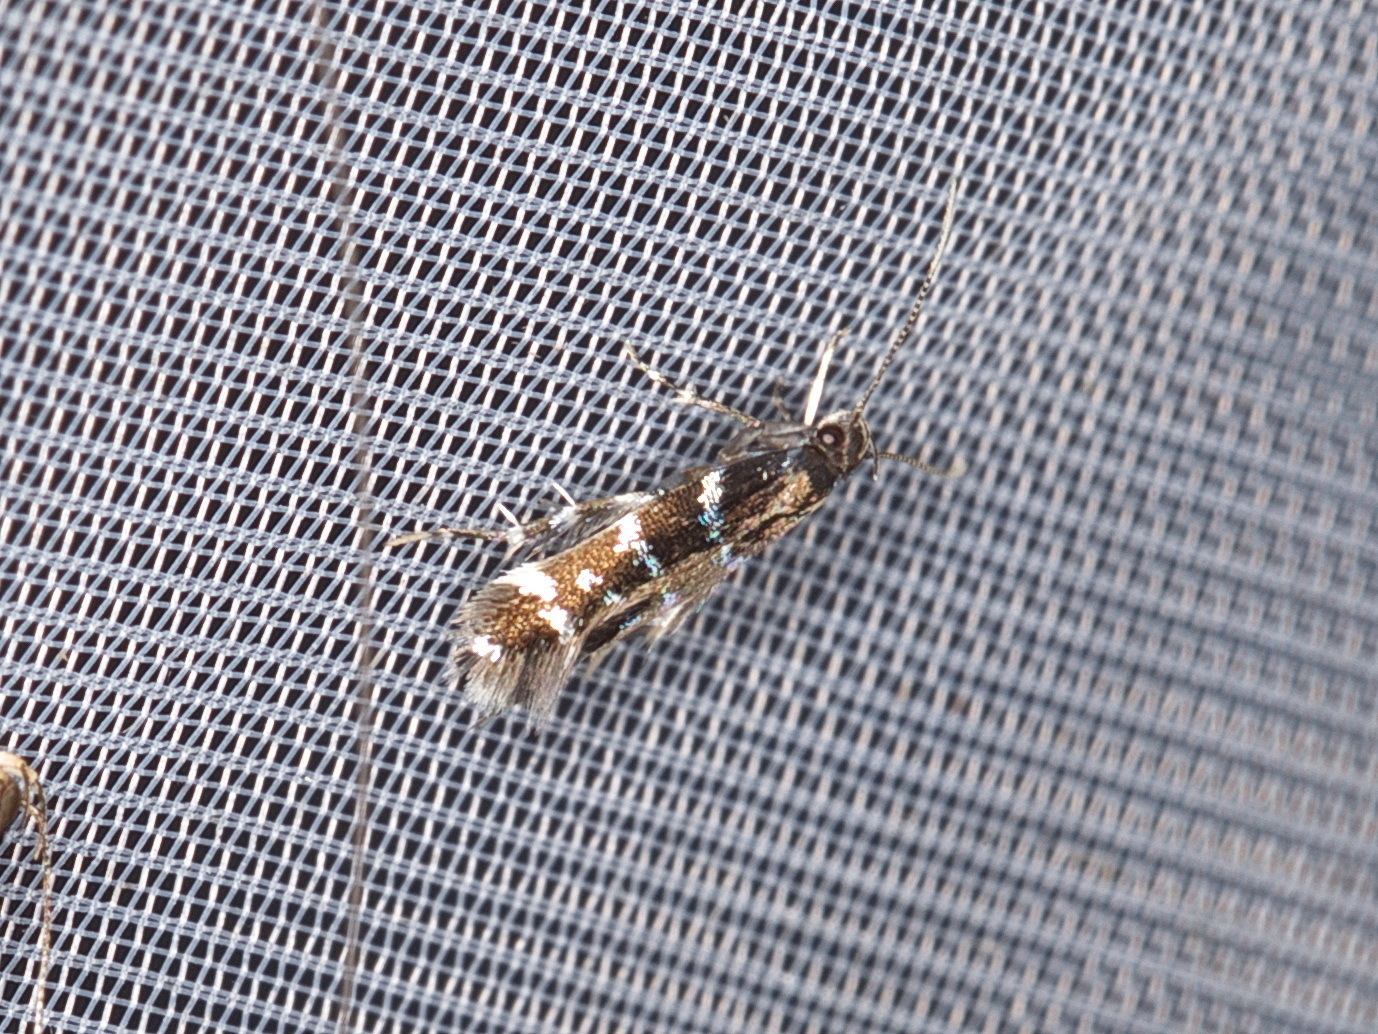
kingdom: Animalia
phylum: Arthropoda
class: Insecta
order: Lepidoptera
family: Cosmopterigidae
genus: Stagmatophora
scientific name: Stagmatophora argyrostrepta
